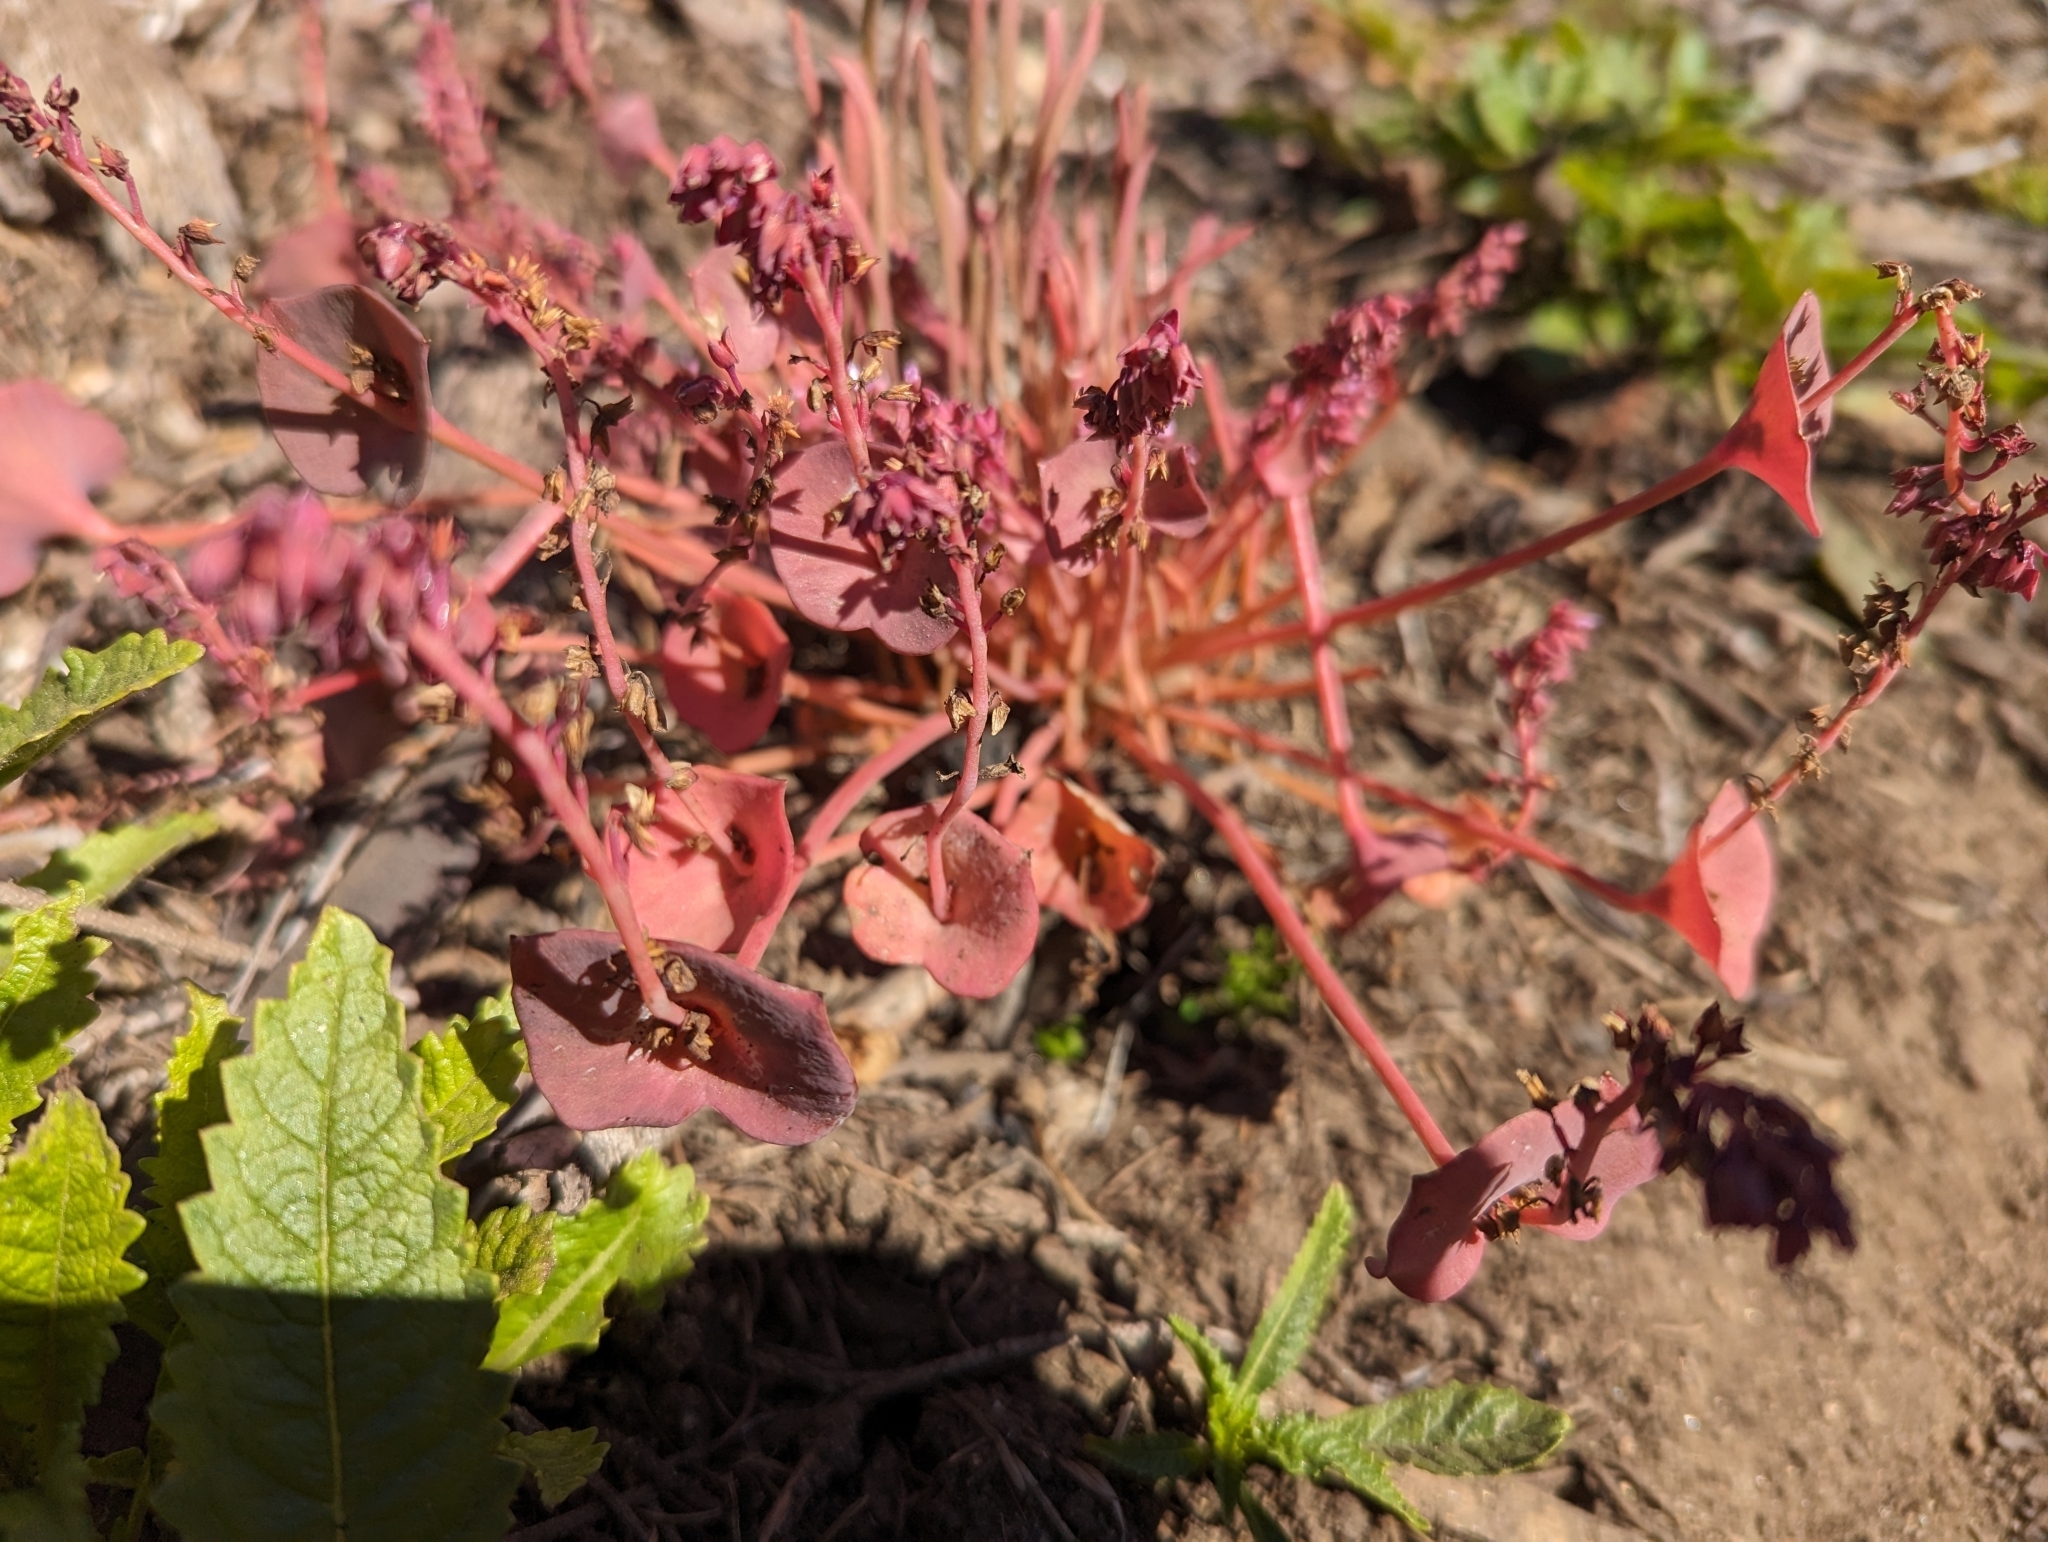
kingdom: Plantae
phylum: Tracheophyta
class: Magnoliopsida
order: Caryophyllales
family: Montiaceae
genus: Claytonia
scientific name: Claytonia perfoliata
